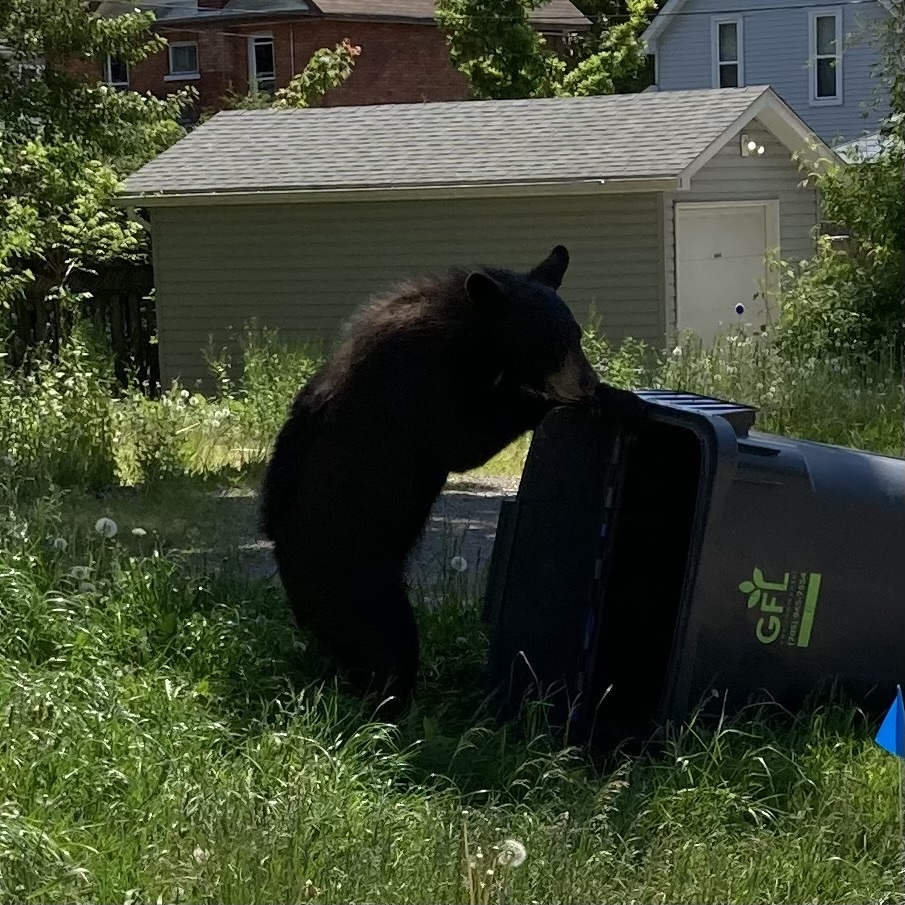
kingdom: Animalia
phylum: Chordata
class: Mammalia
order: Carnivora
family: Ursidae
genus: Ursus
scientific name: Ursus americanus
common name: American black bear
